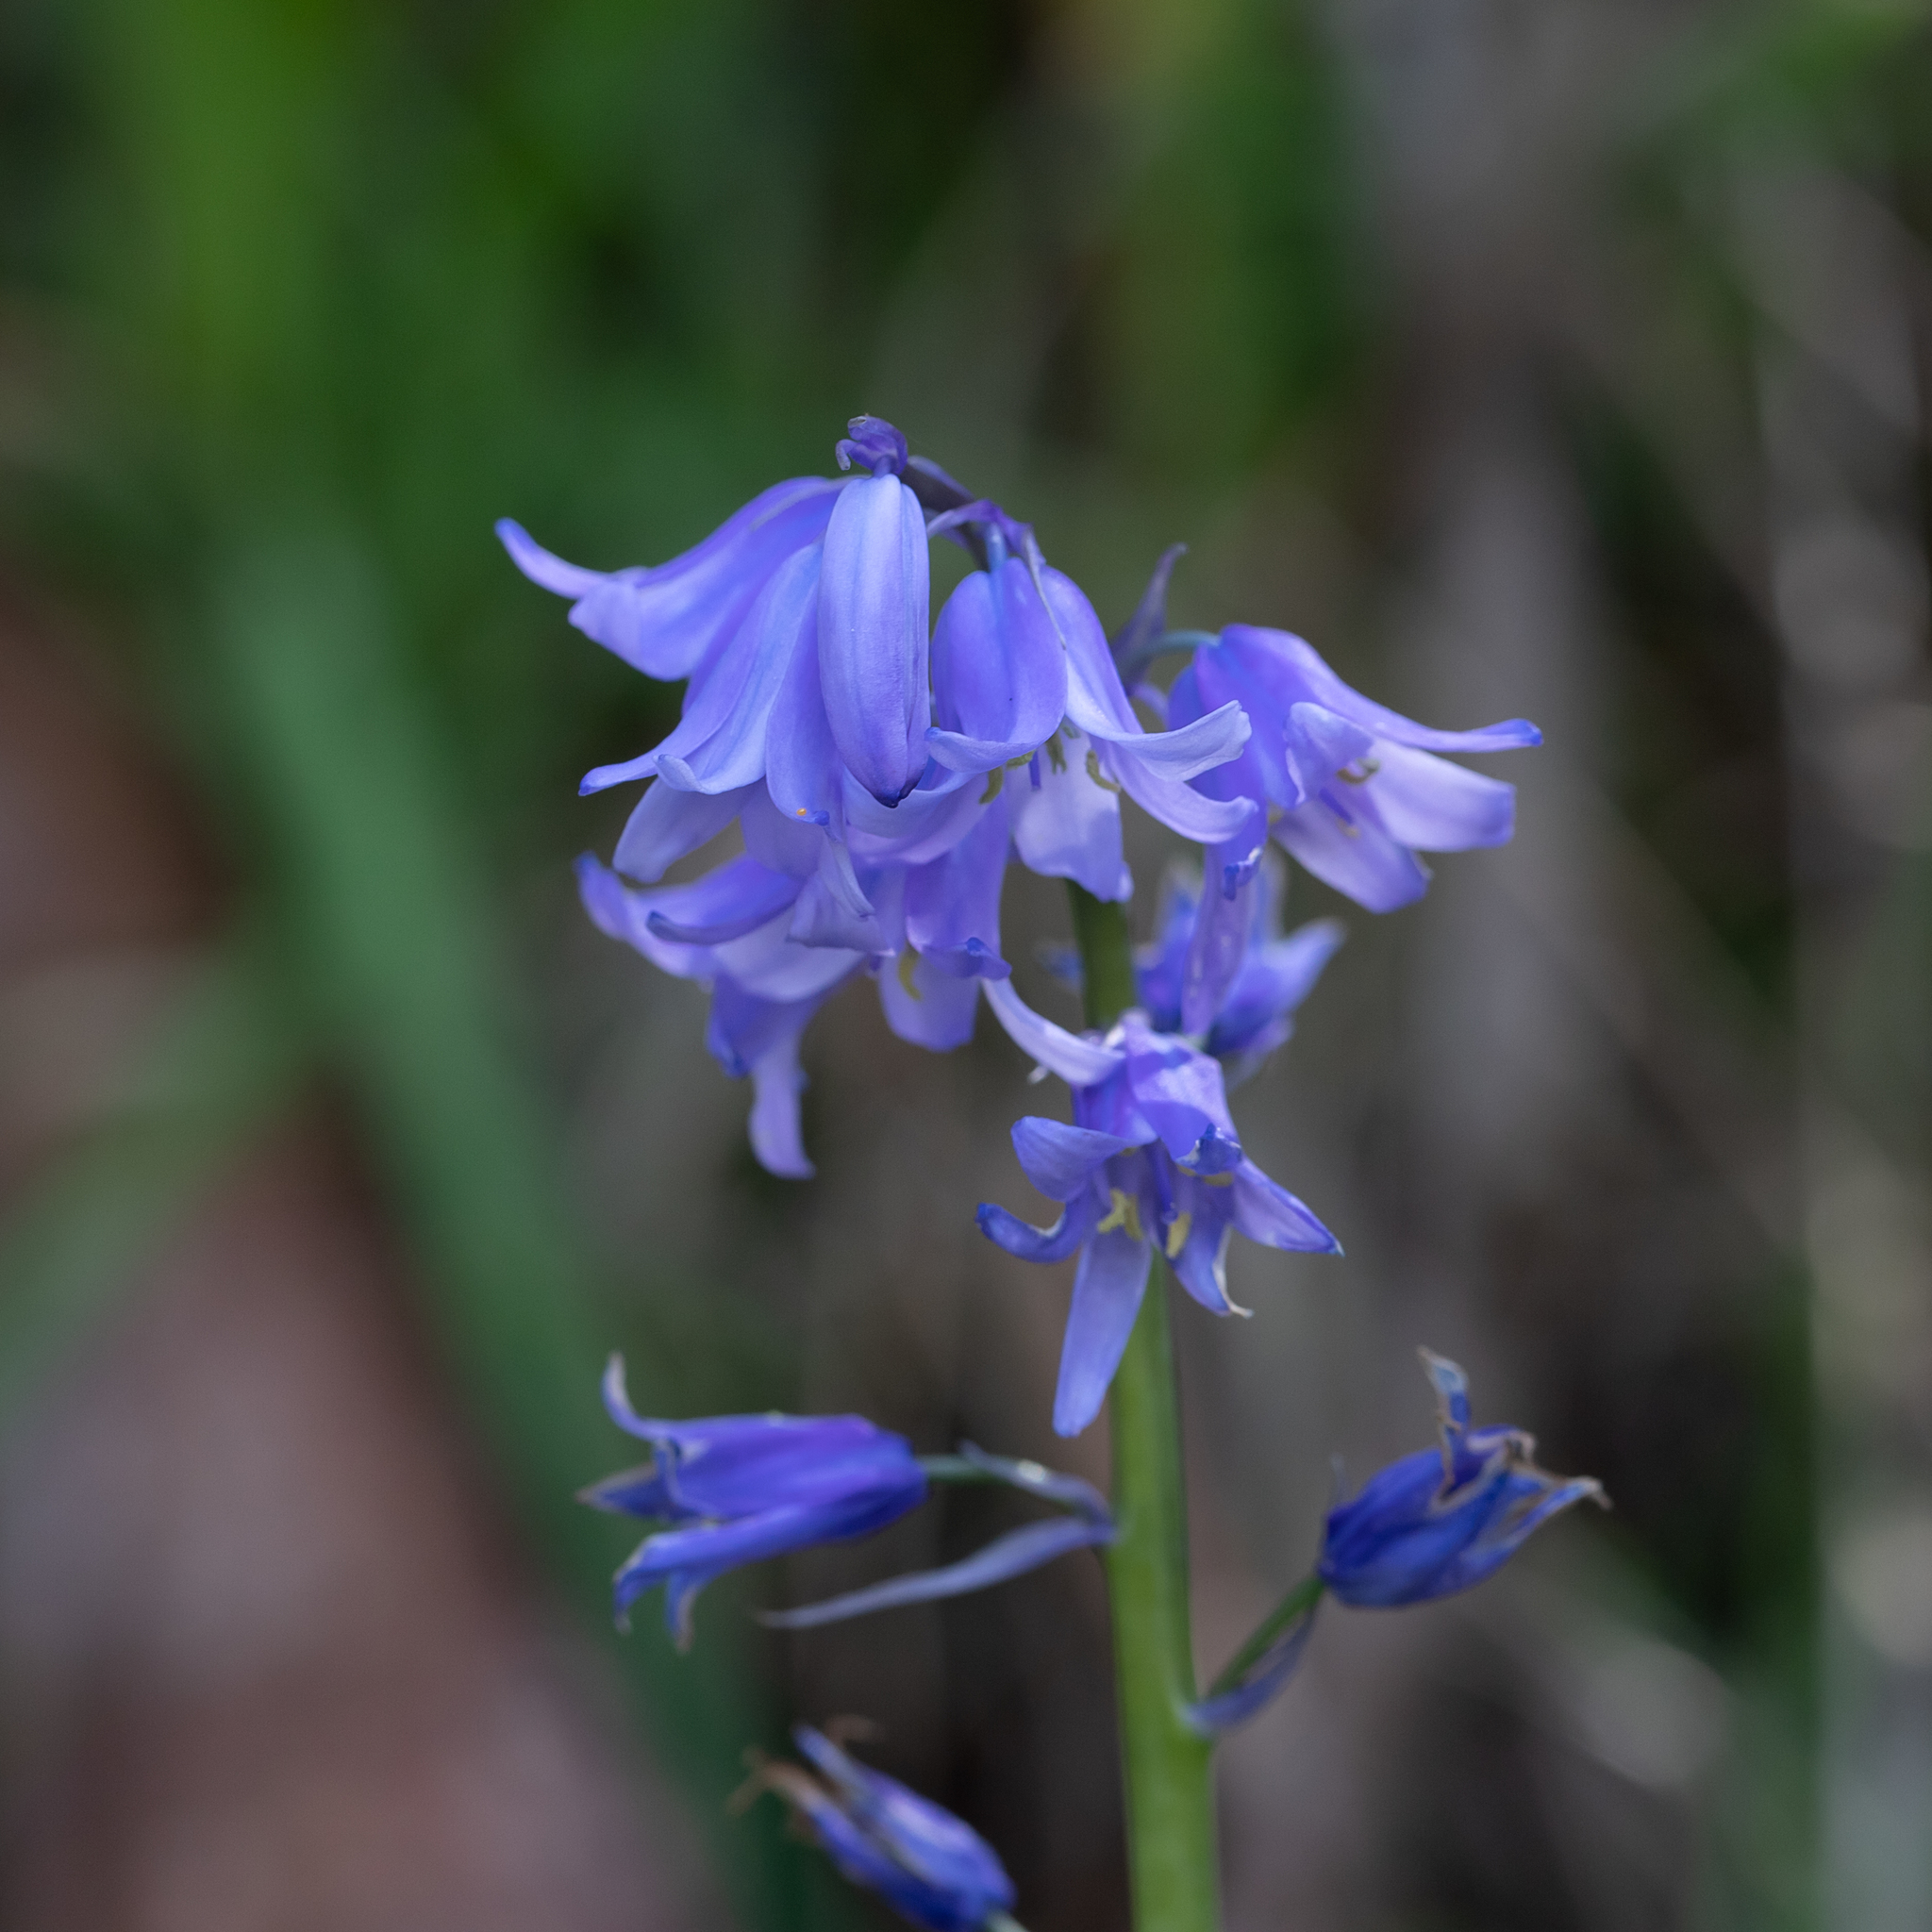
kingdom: Plantae
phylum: Tracheophyta
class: Liliopsida
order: Asparagales
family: Asparagaceae
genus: Hyacinthoides
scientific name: Hyacinthoides hispanica
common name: Spanish bluebell
